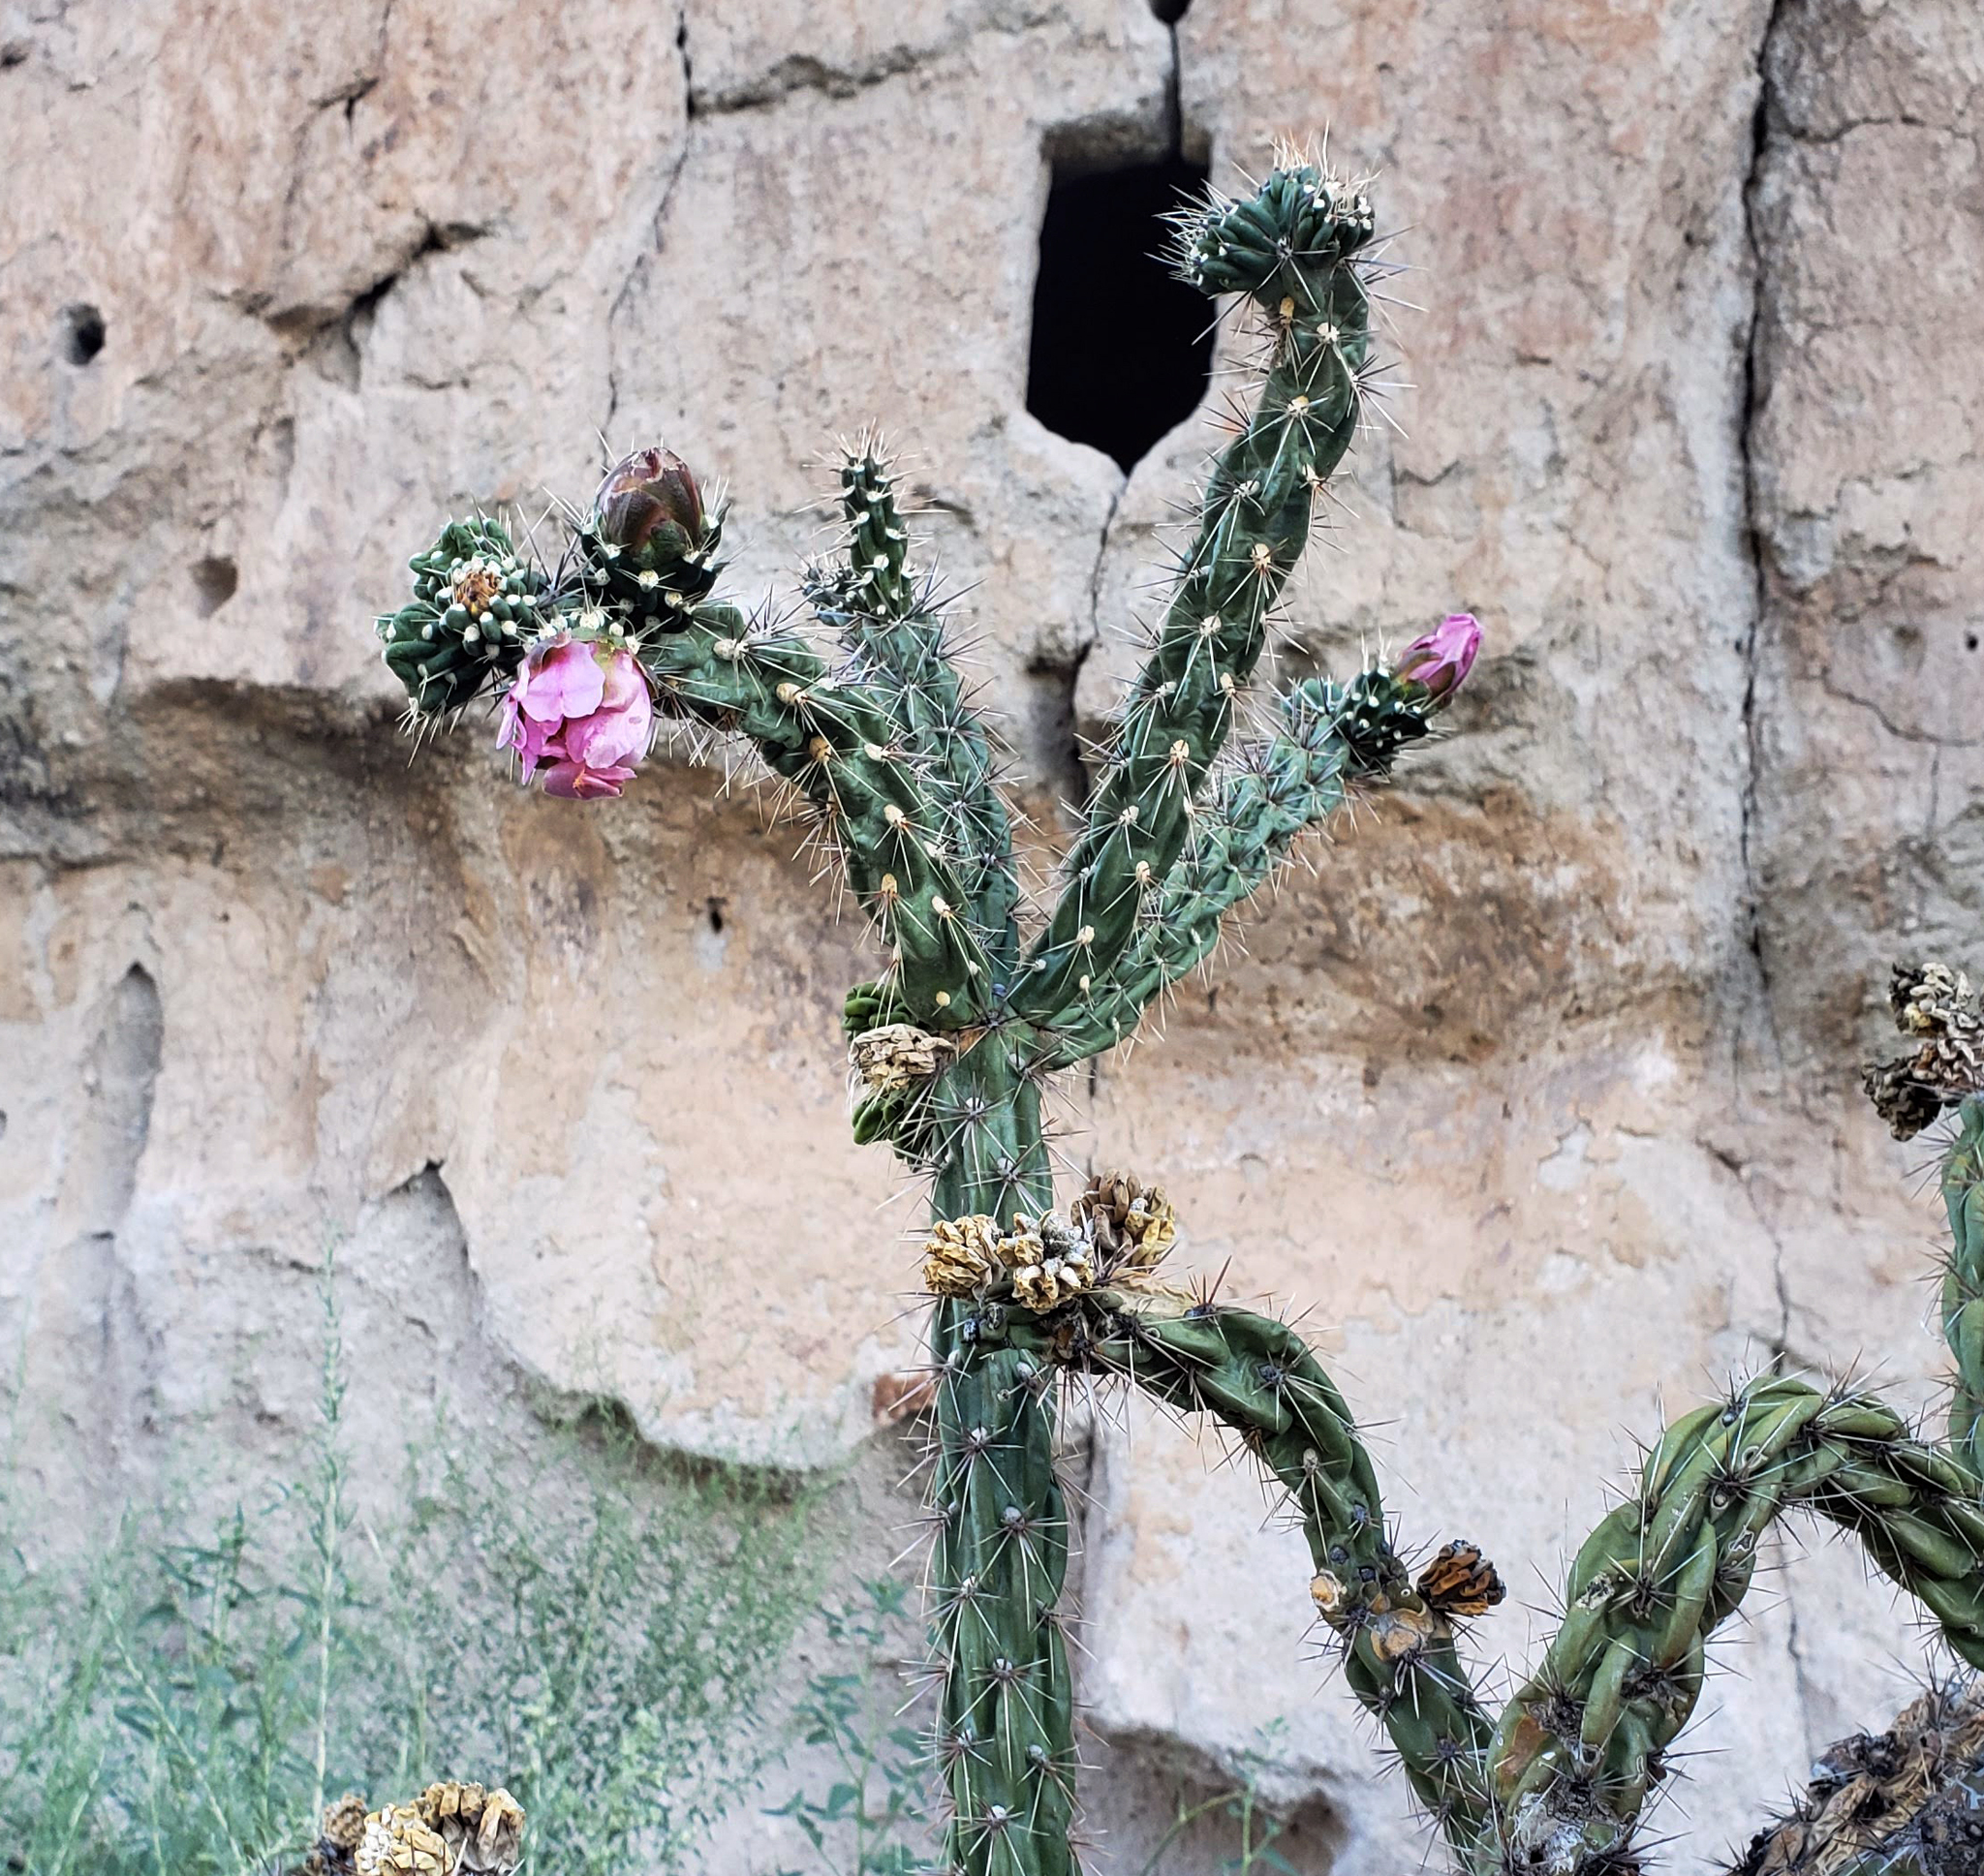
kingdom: Plantae
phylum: Tracheophyta
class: Magnoliopsida
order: Caryophyllales
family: Cactaceae
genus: Cylindropuntia
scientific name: Cylindropuntia imbricata
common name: Candelabrum cactus
